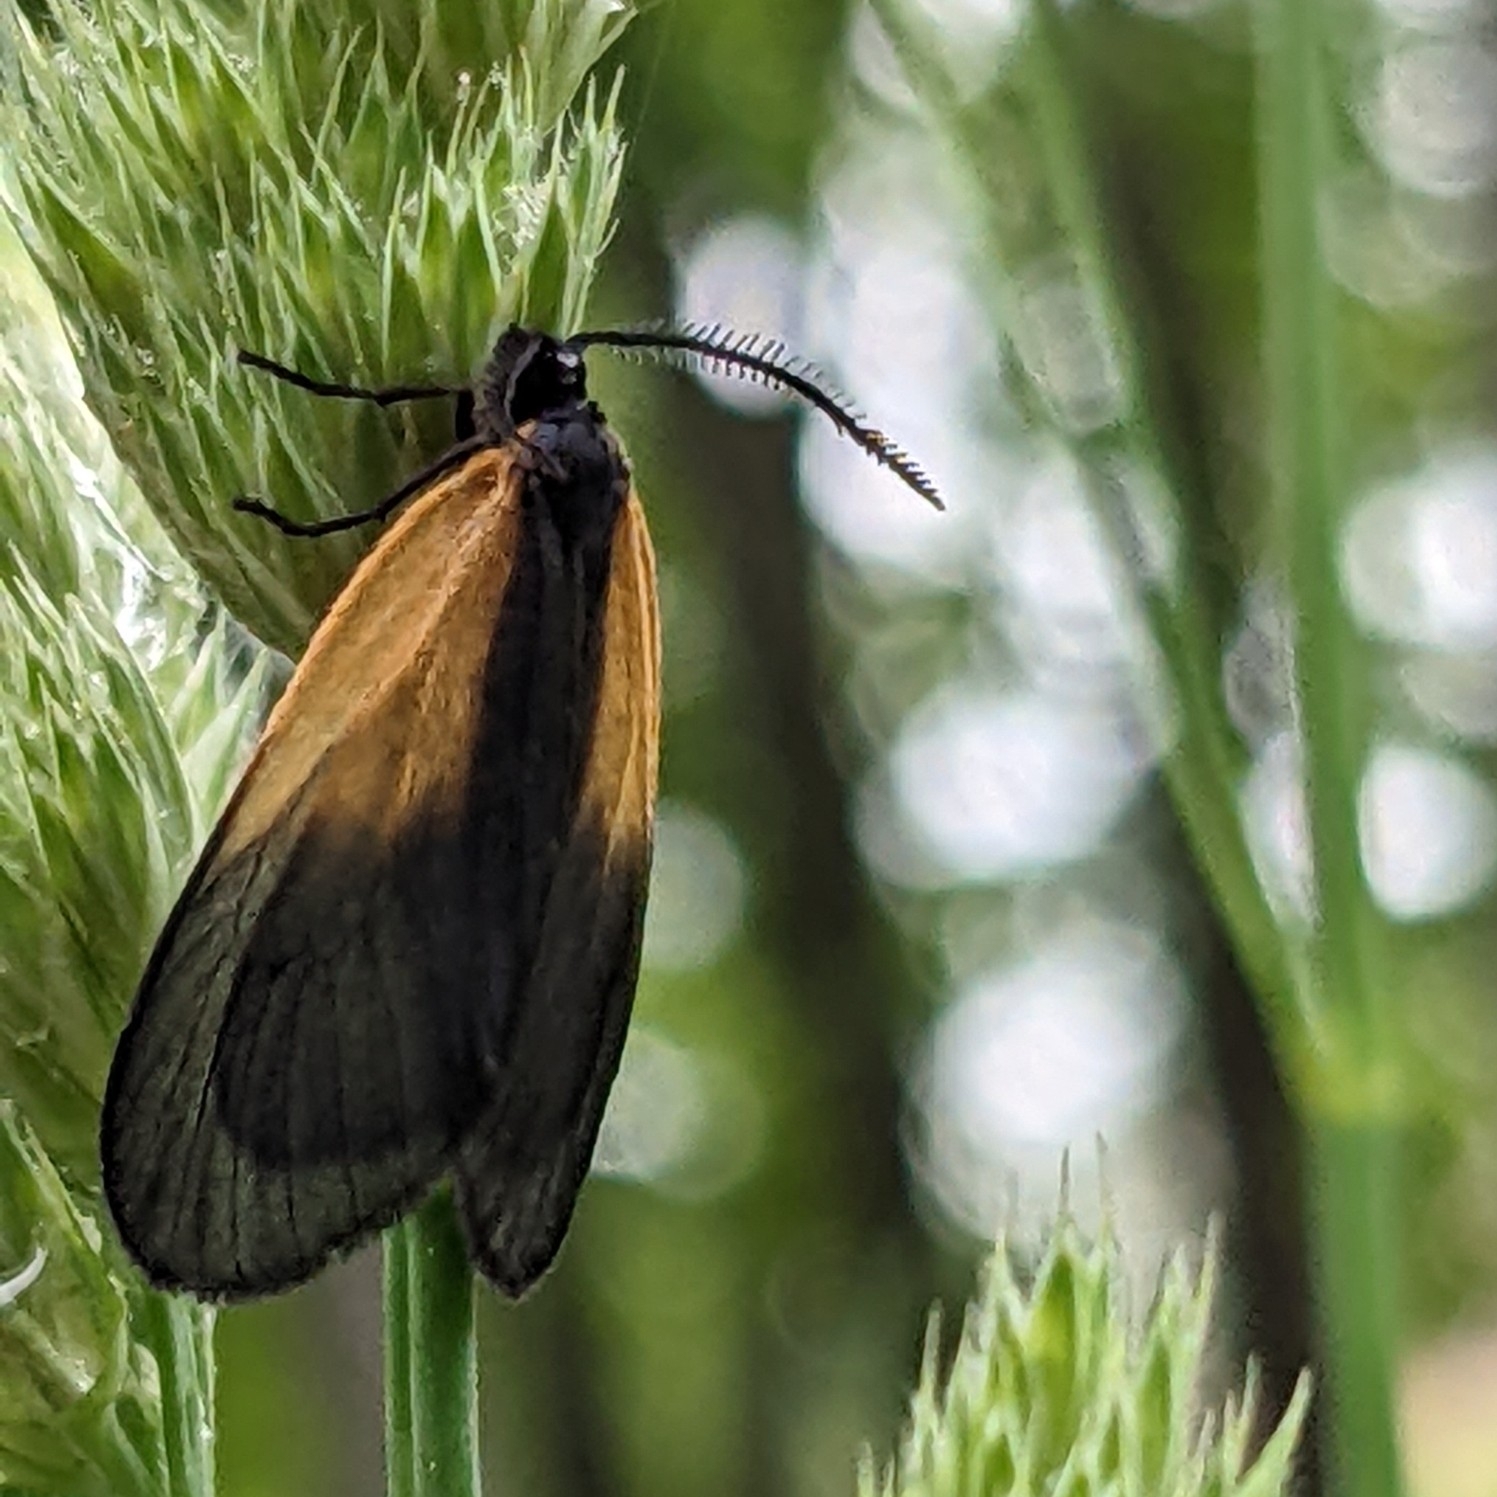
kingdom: Animalia
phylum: Arthropoda
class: Insecta
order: Lepidoptera
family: Zygaenidae
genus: Malthaca
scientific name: Malthaca dimidiata
